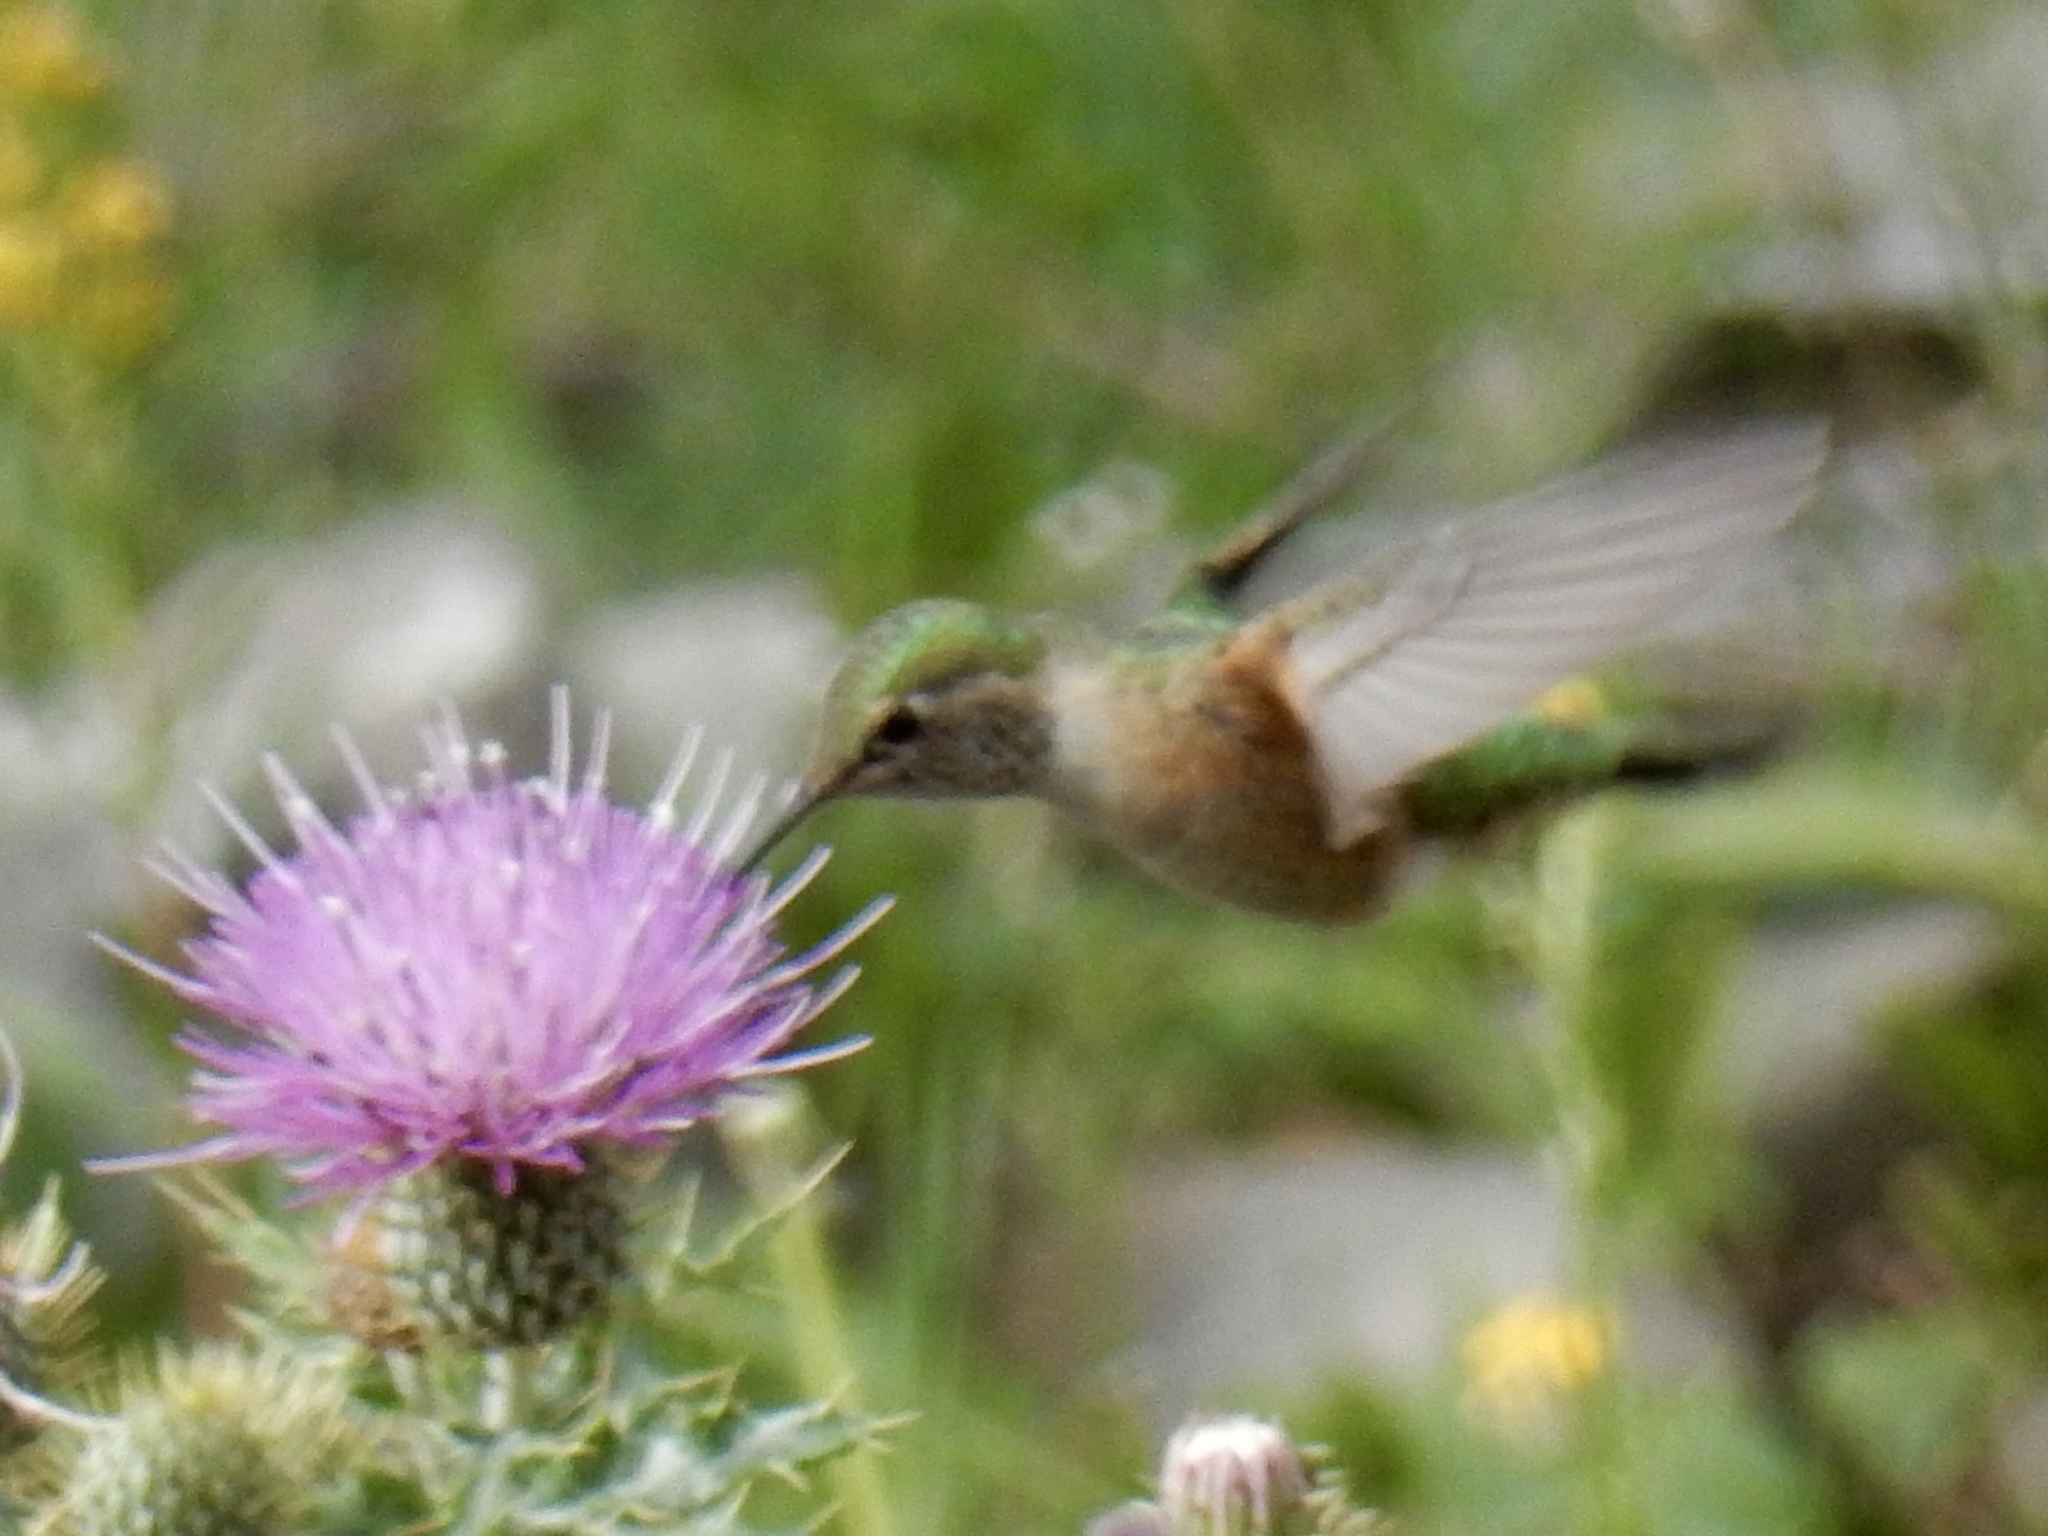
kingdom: Animalia
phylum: Chordata
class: Aves
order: Apodiformes
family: Trochilidae
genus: Selasphorus
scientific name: Selasphorus platycercus
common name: Broad-tailed hummingbird
